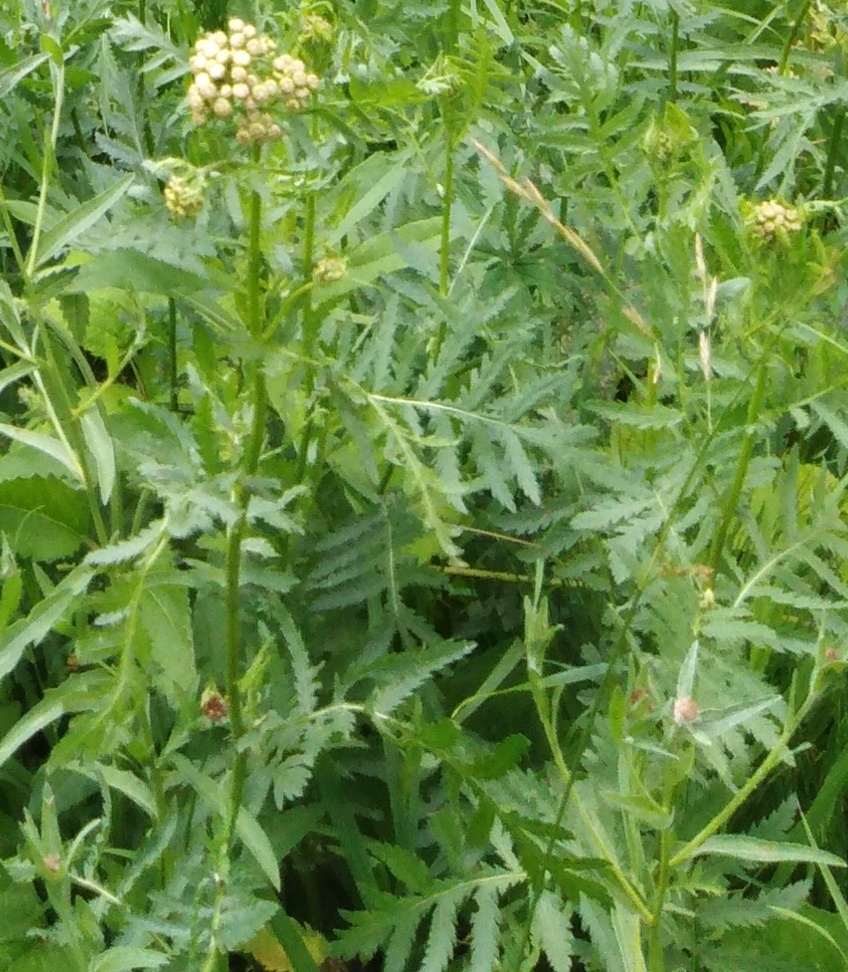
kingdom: Plantae
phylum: Tracheophyta
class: Magnoliopsida
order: Asterales
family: Asteraceae
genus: Tanacetum
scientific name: Tanacetum vulgare
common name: Common tansy
